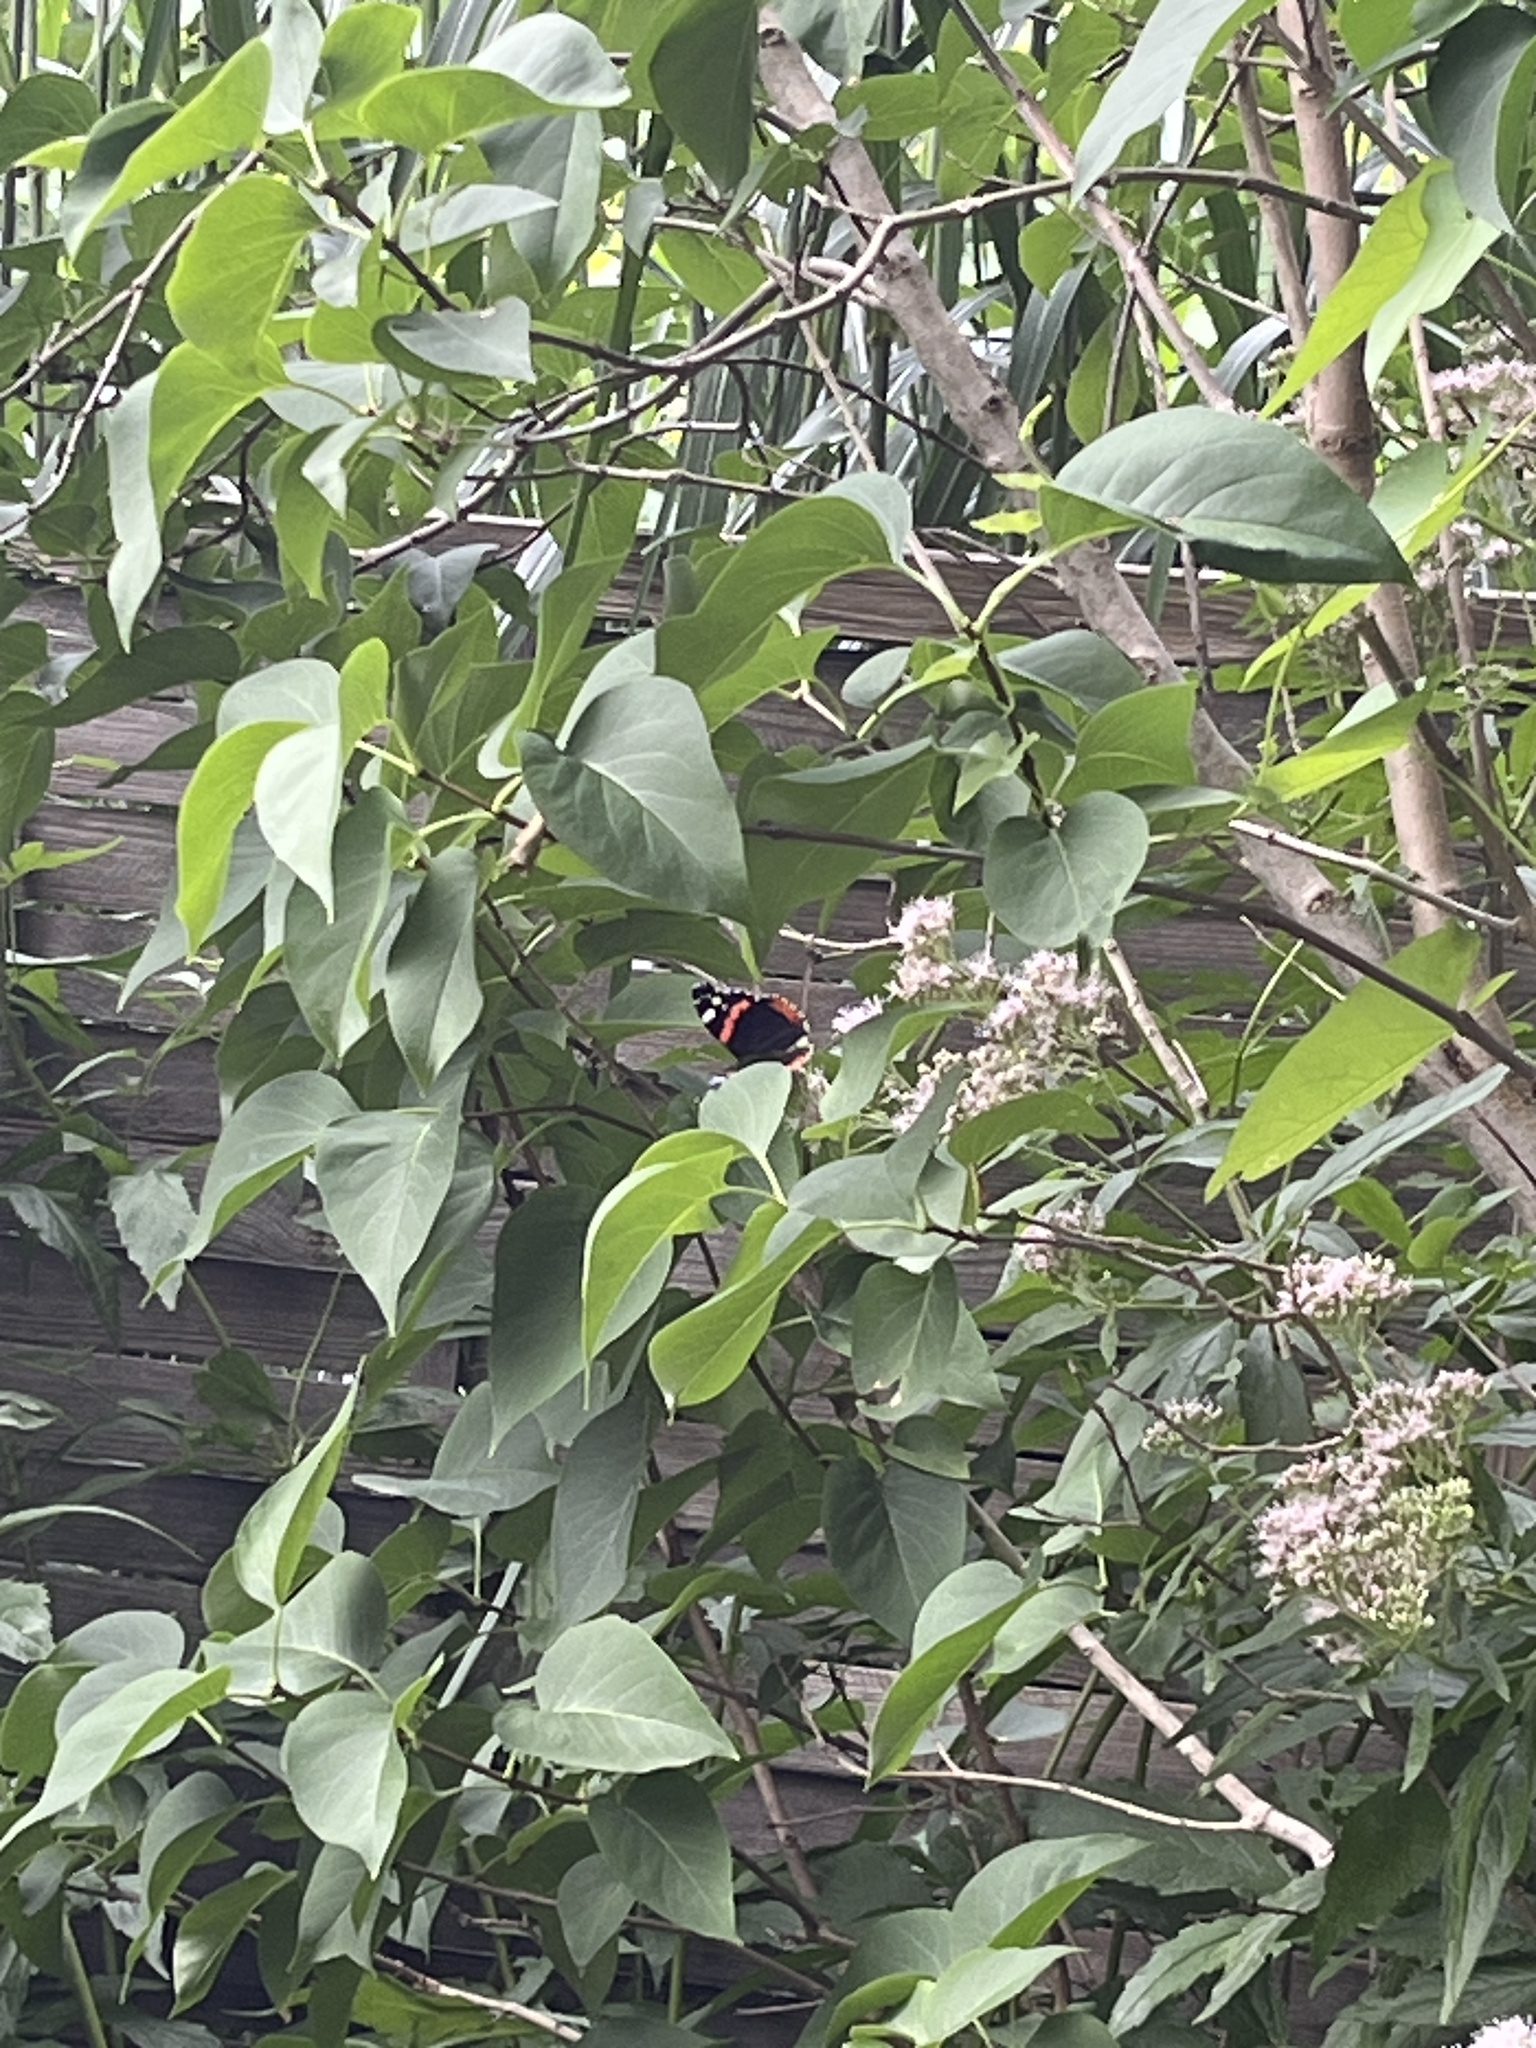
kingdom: Animalia
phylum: Arthropoda
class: Insecta
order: Lepidoptera
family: Nymphalidae
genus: Vanessa
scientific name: Vanessa atalanta
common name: Red admiral
